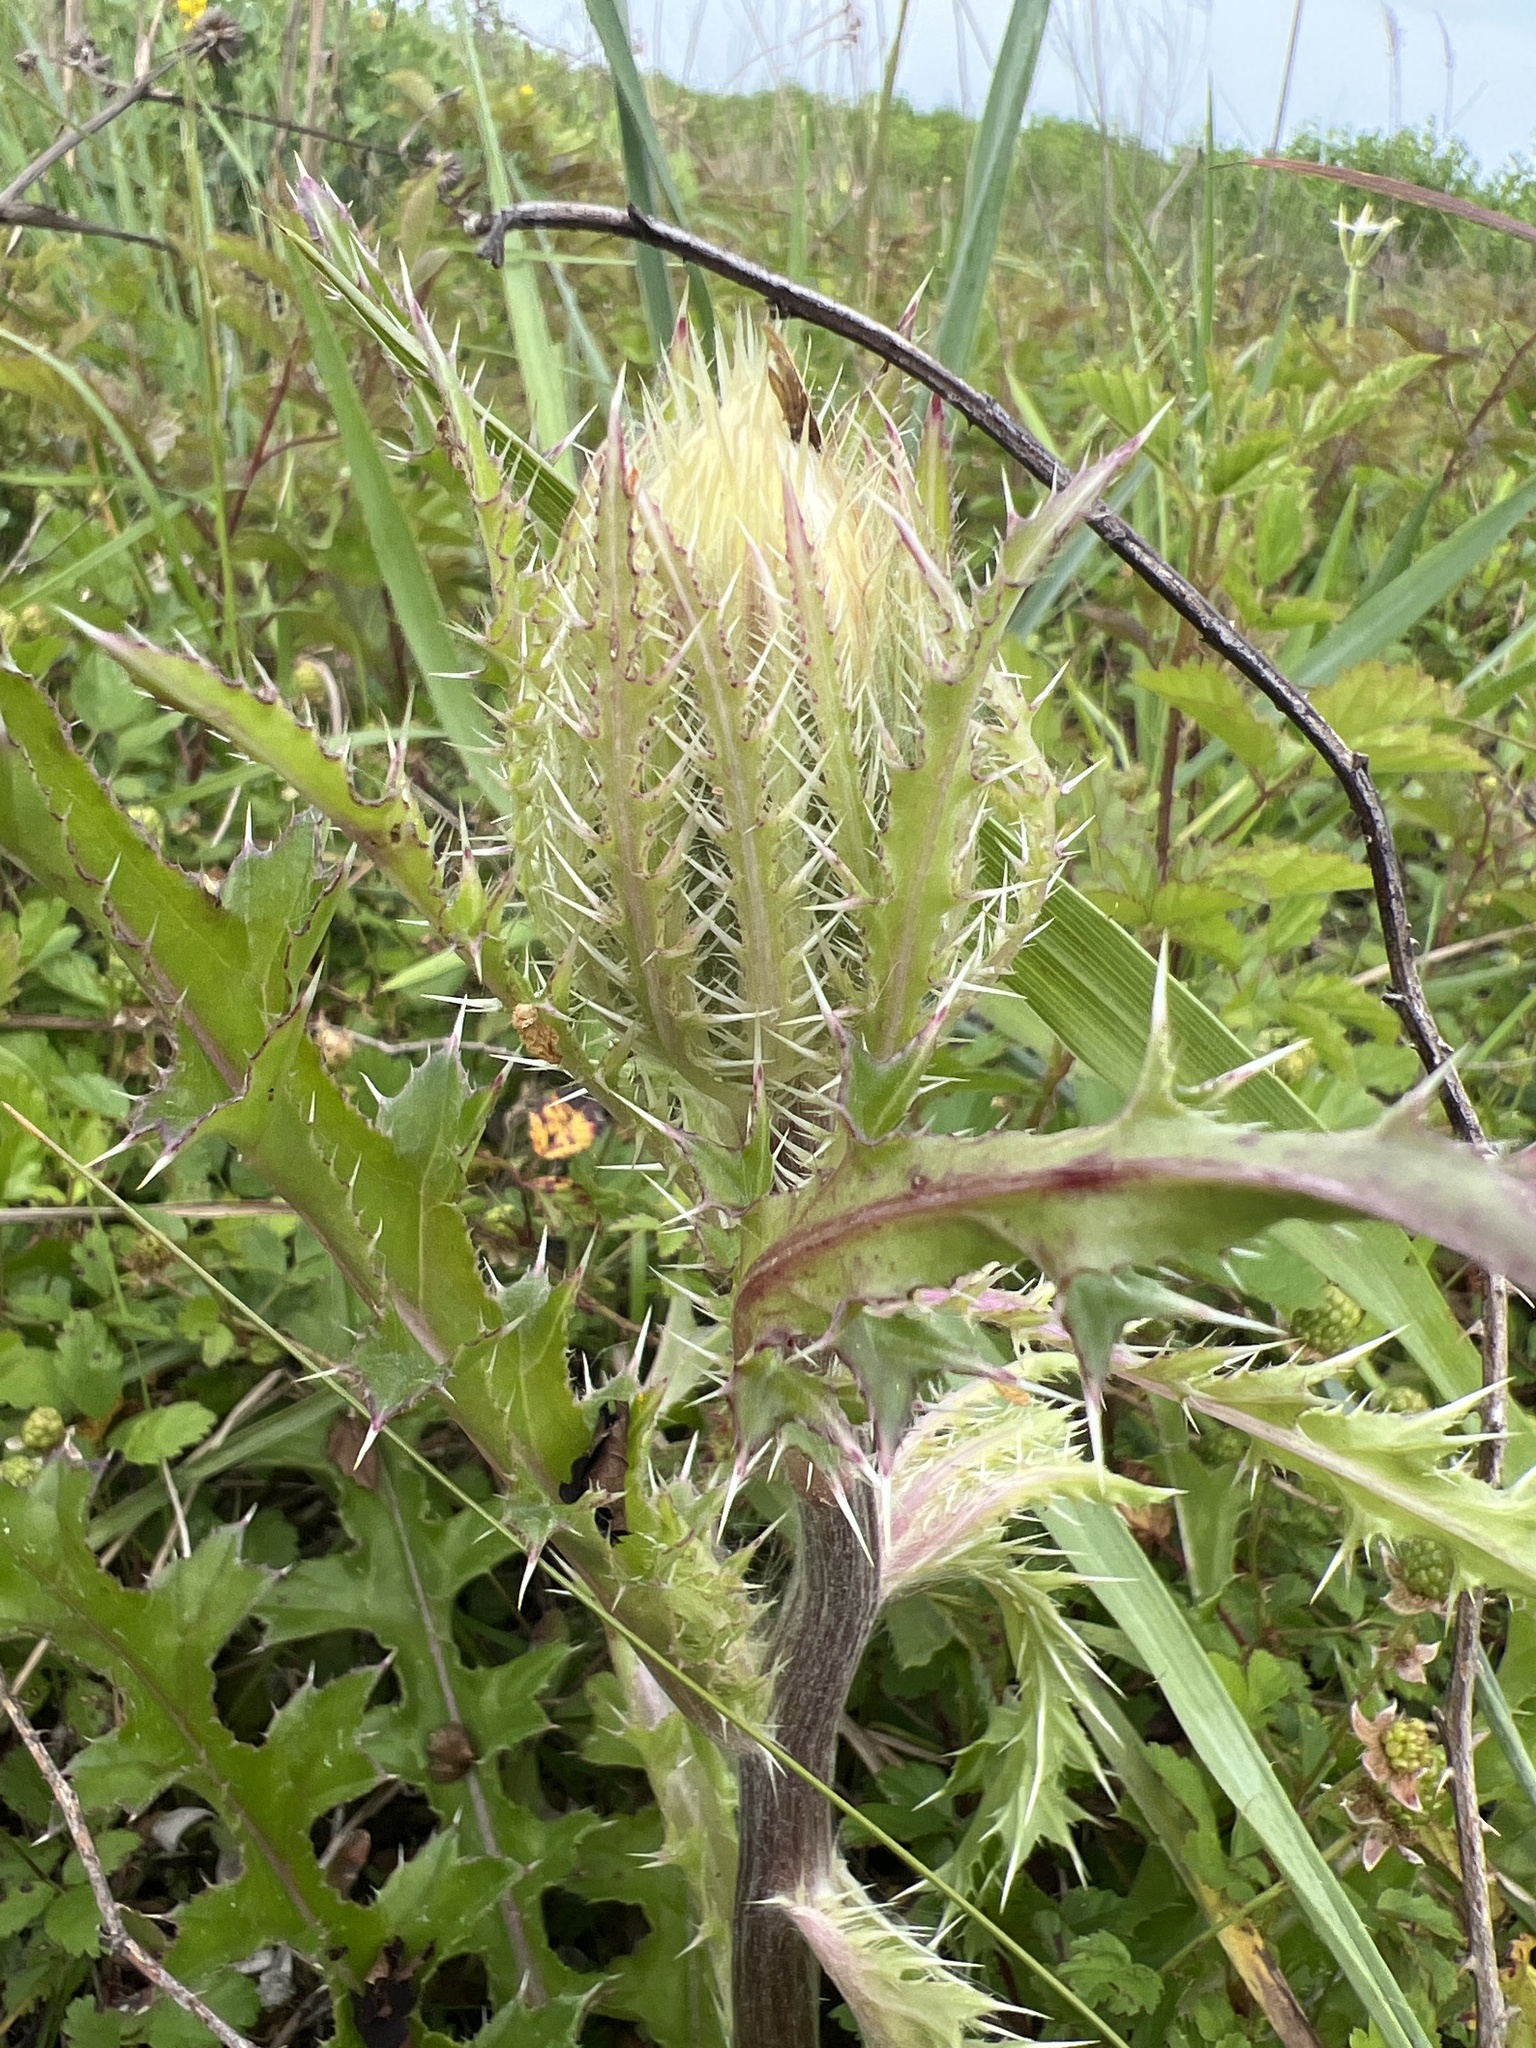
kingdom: Plantae
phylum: Tracheophyta
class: Magnoliopsida
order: Asterales
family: Asteraceae
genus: Cirsium
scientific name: Cirsium horridulum
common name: Bristly thistle
